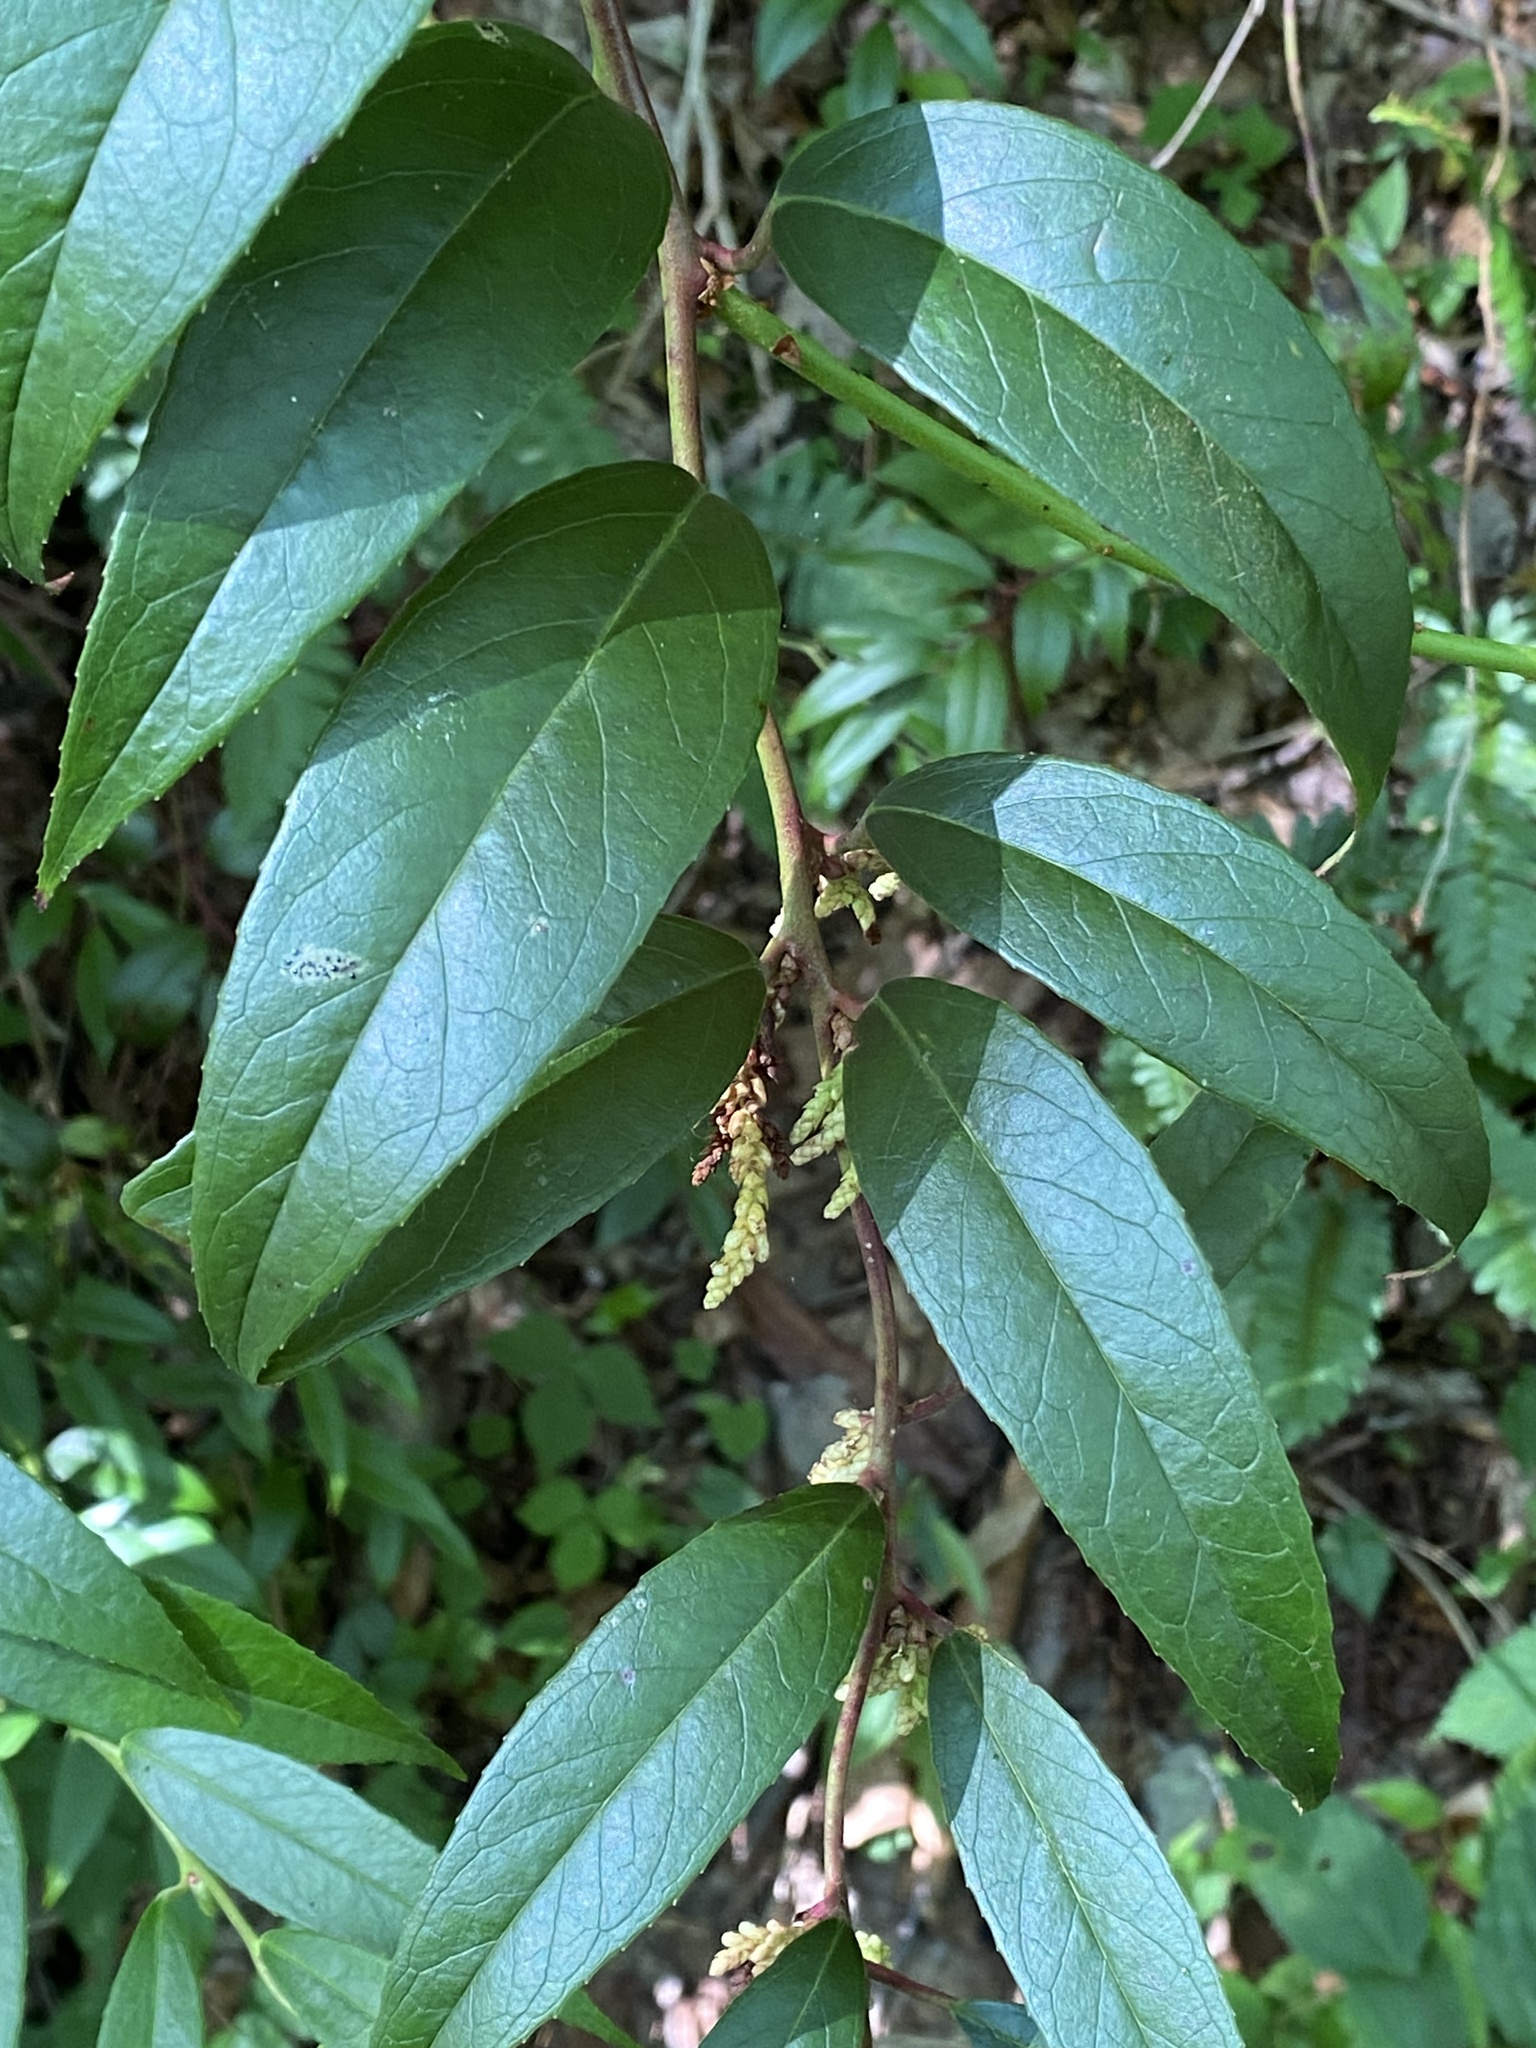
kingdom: Plantae
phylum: Tracheophyta
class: Magnoliopsida
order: Ericales
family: Ericaceae
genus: Leucothoe
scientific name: Leucothoe fontanesiana
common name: Fetterbush
